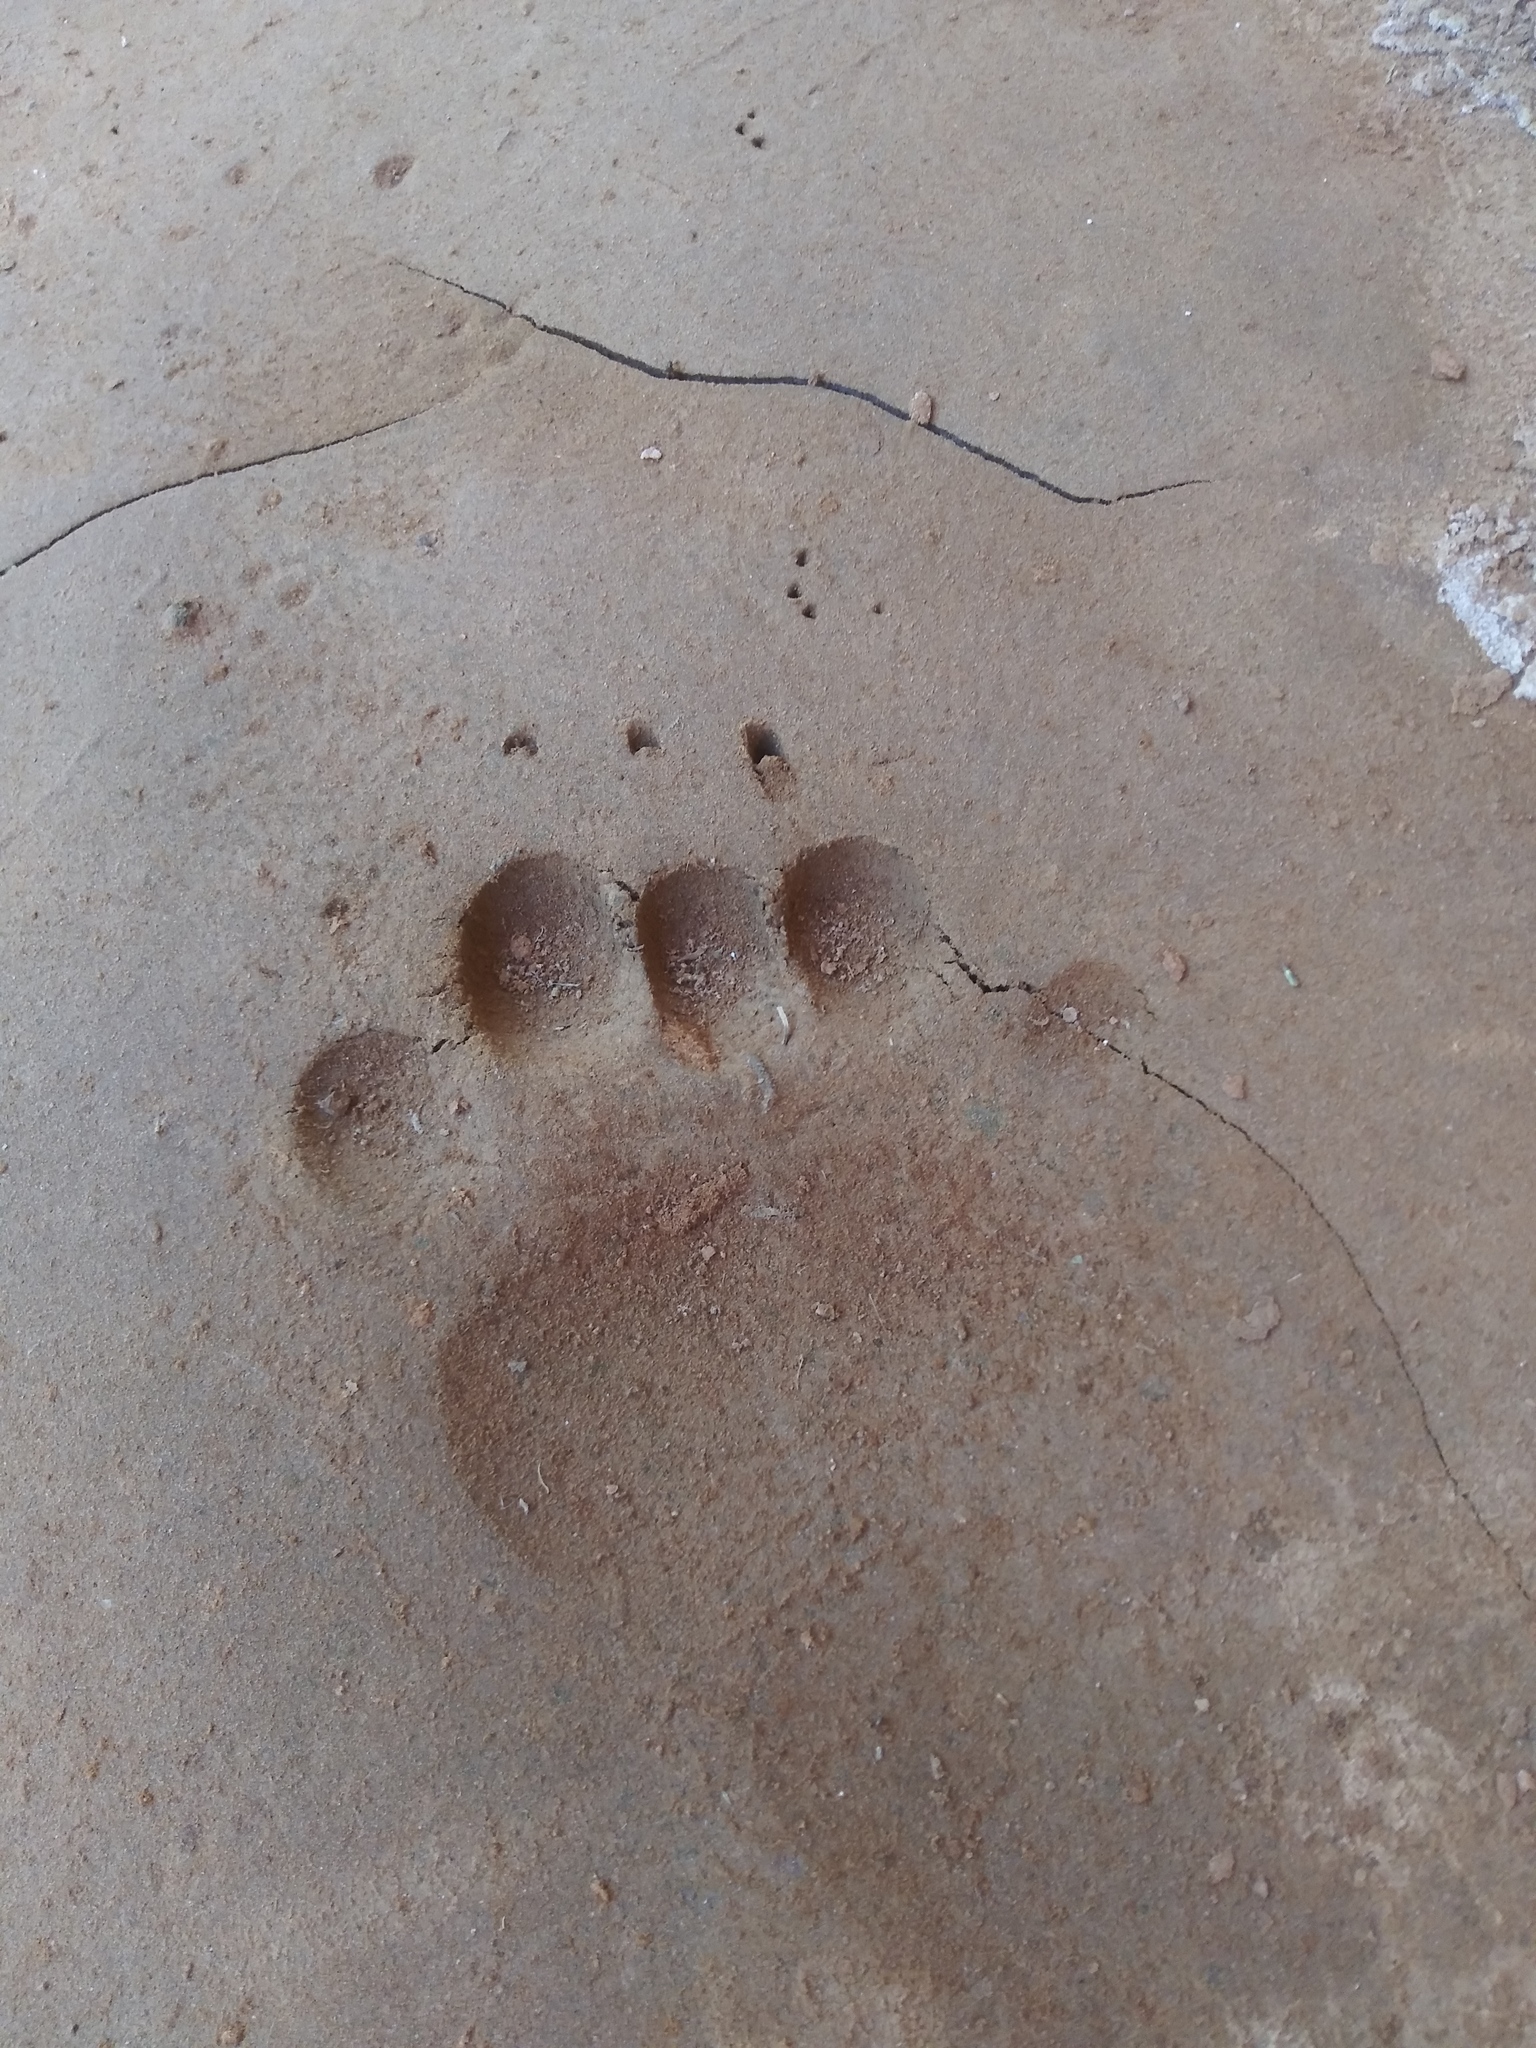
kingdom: Animalia
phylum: Chordata
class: Mammalia
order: Carnivora
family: Ursidae
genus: Ursus
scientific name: Ursus americanus
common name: American black bear
